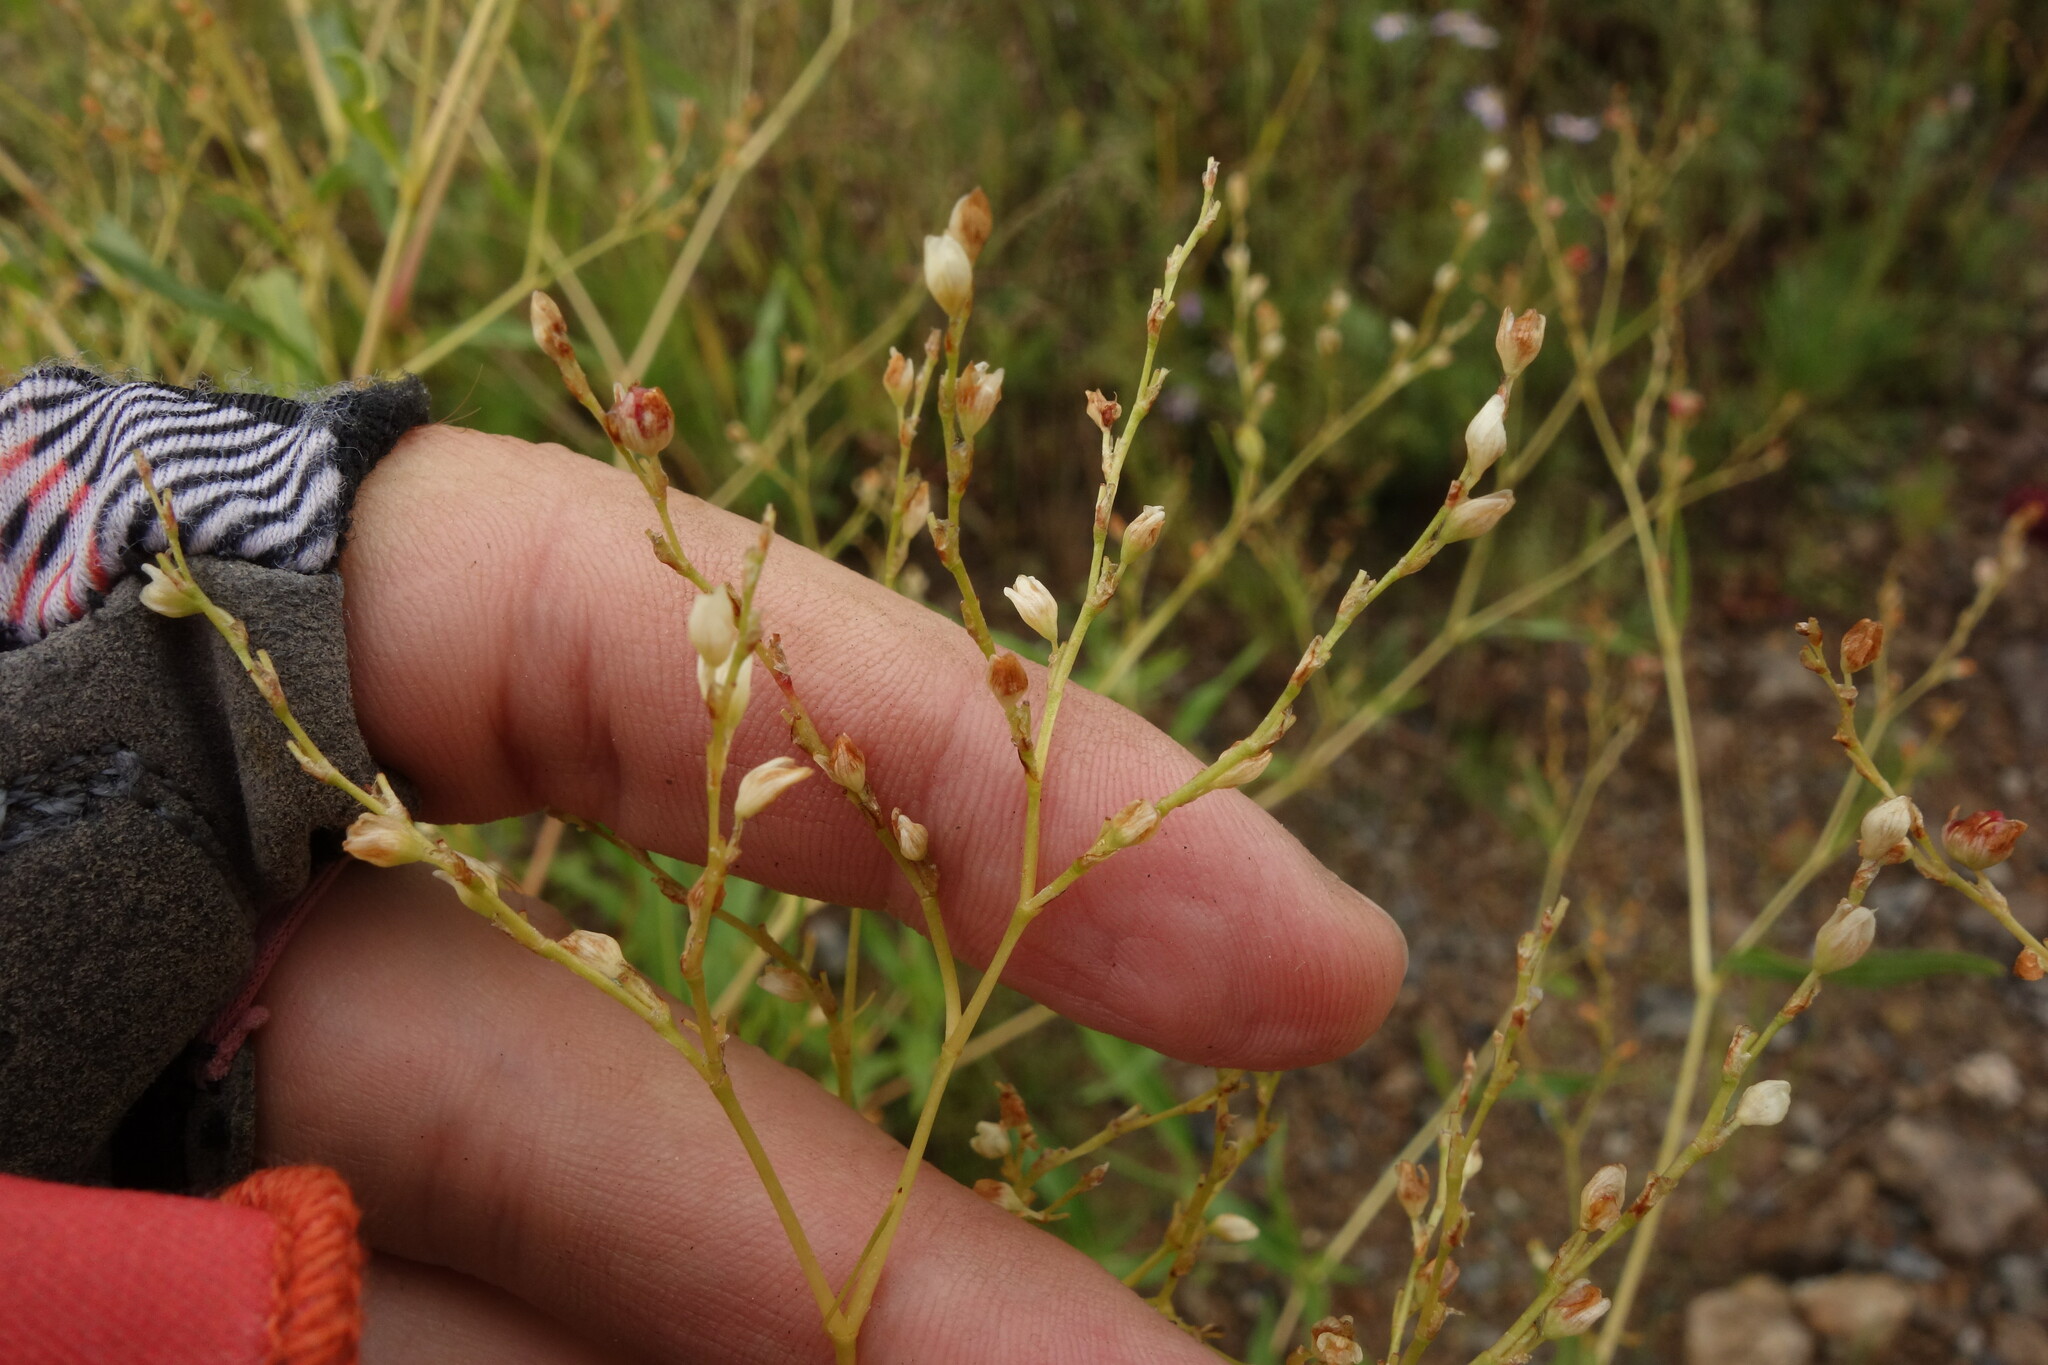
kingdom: Plantae
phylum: Tracheophyta
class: Magnoliopsida
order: Caryophyllales
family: Polygonaceae
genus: Koenigia
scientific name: Koenigia divaricata
